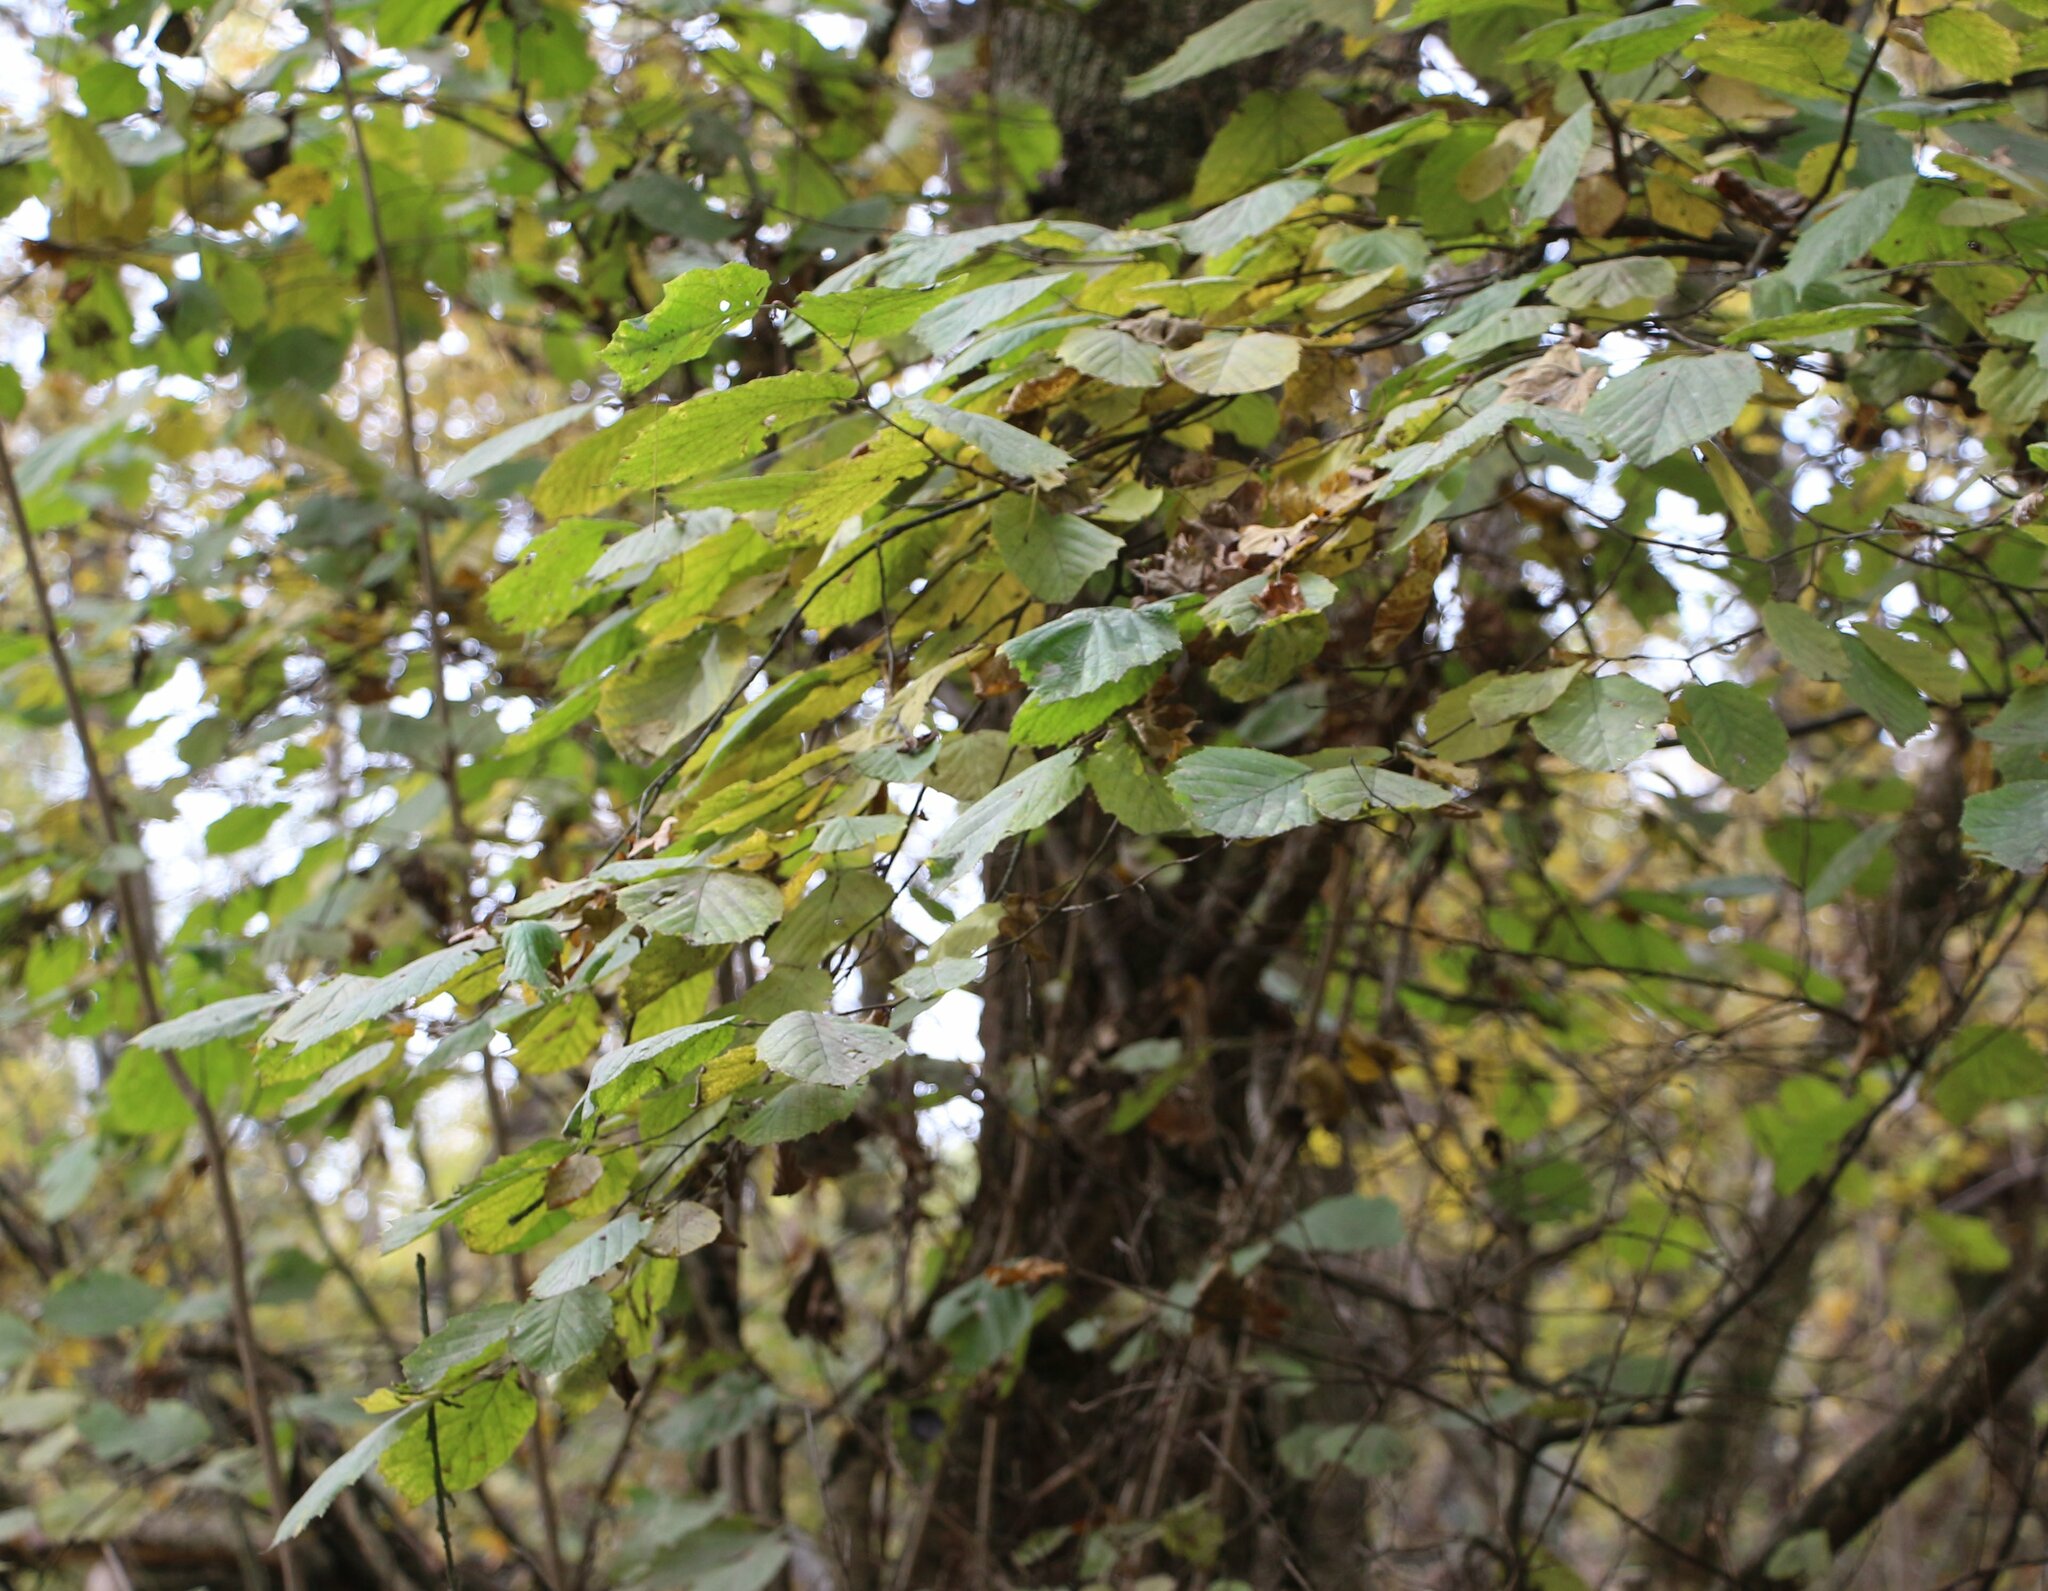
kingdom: Plantae
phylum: Tracheophyta
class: Magnoliopsida
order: Fagales
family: Betulaceae
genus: Corylus
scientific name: Corylus avellana
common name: European hazel
